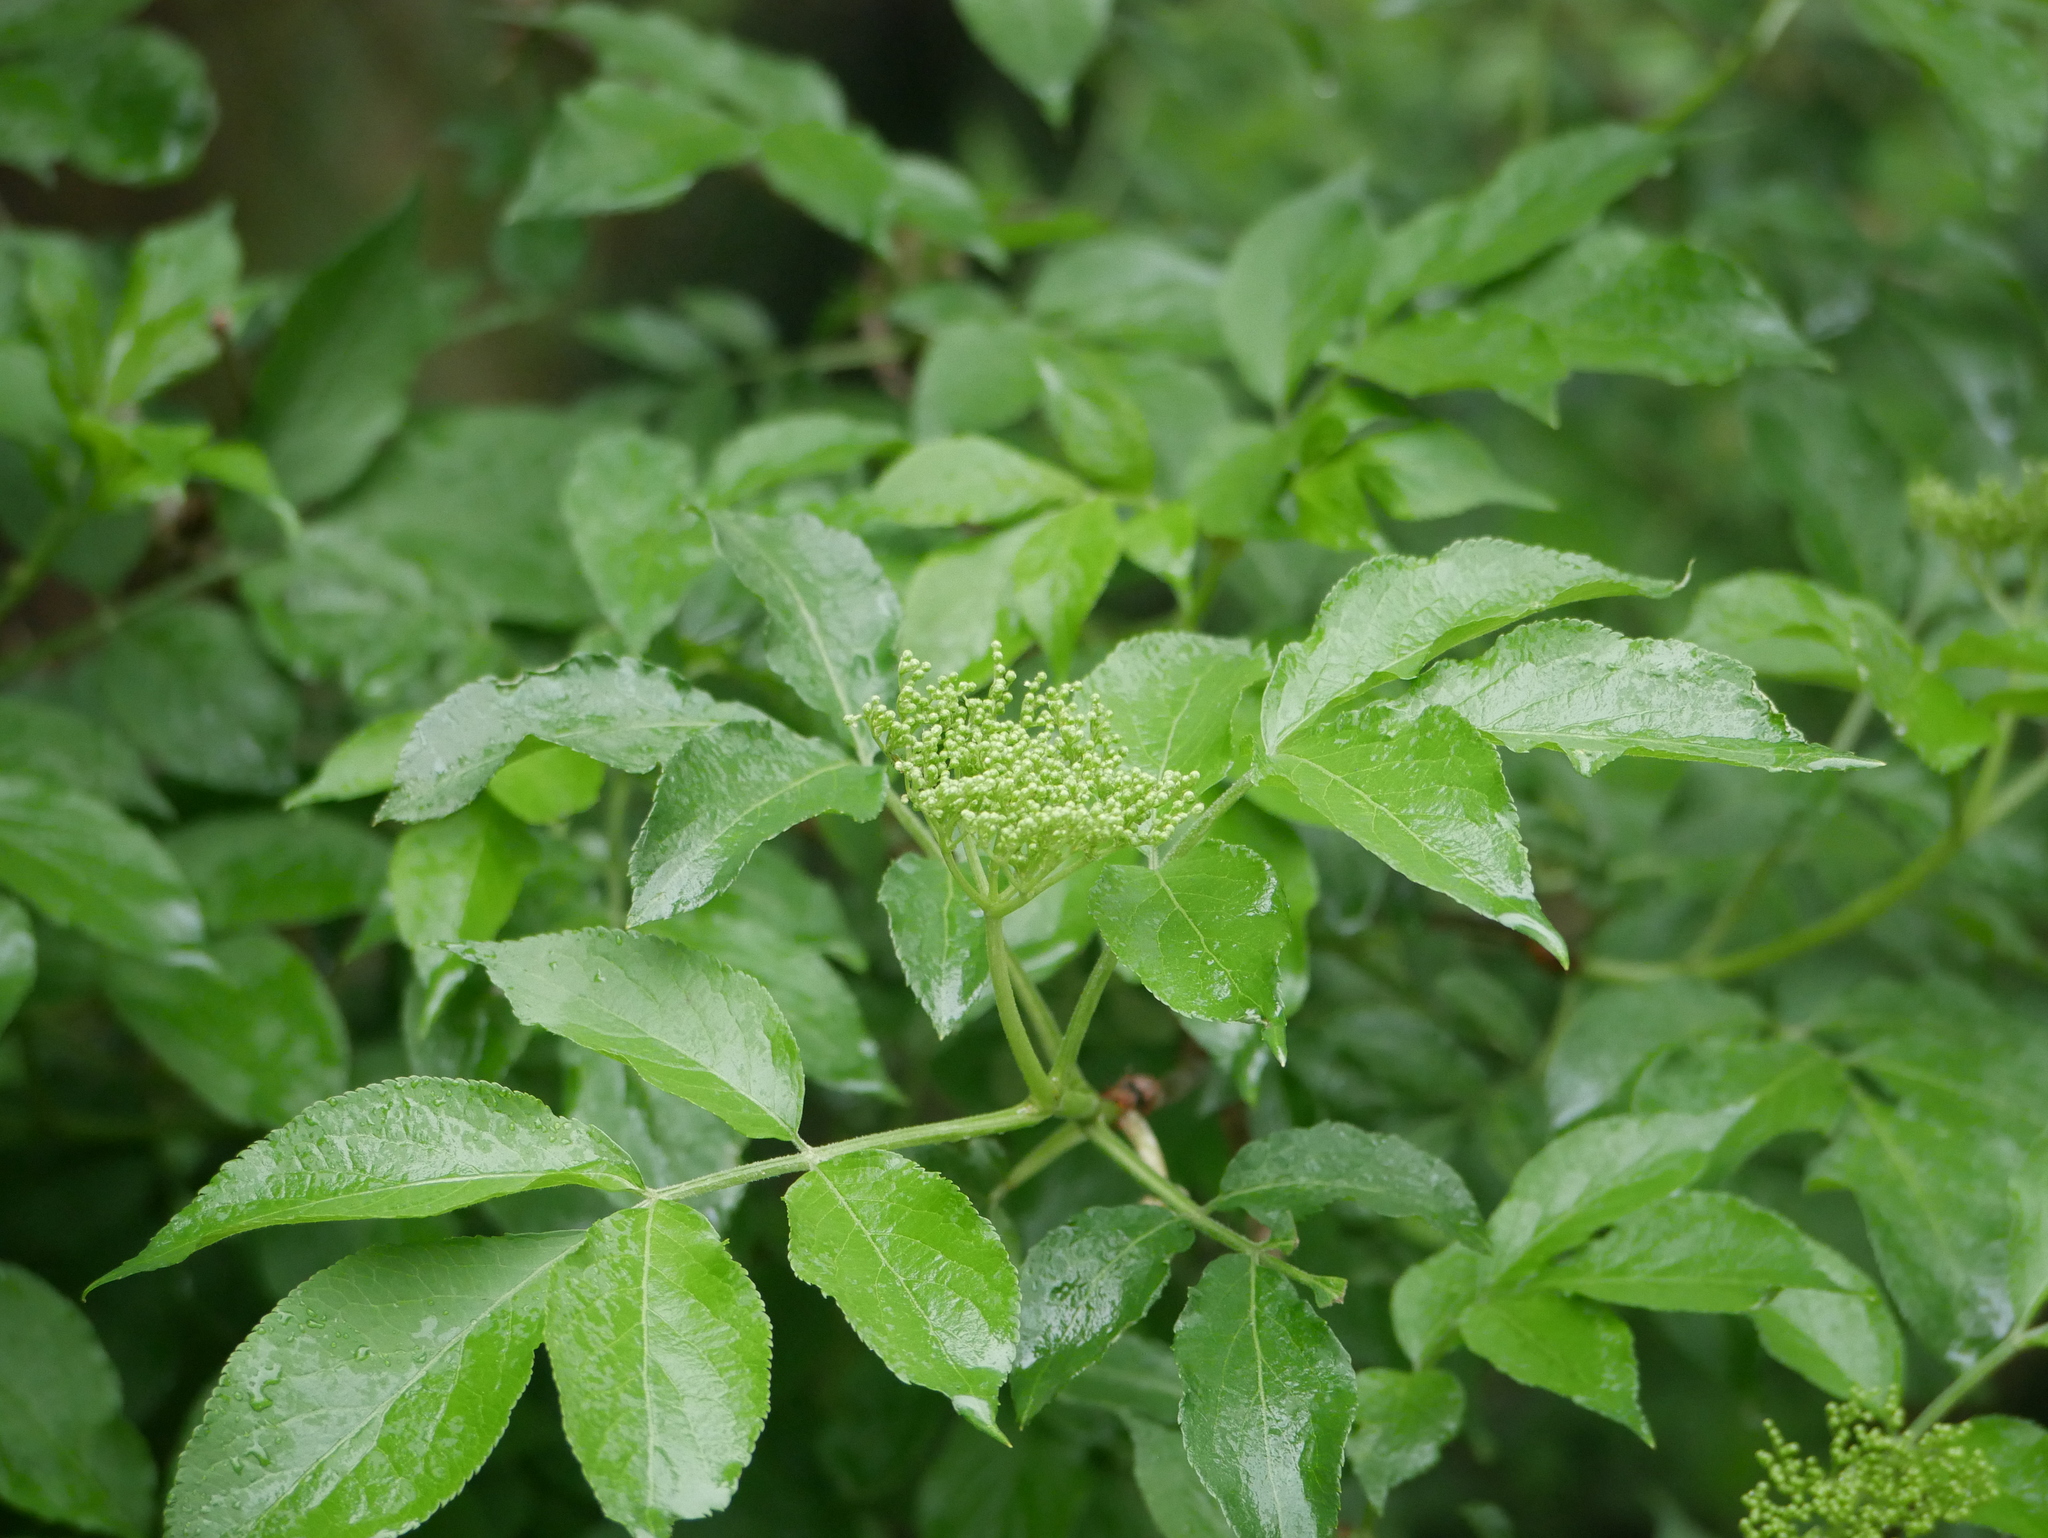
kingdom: Plantae
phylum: Tracheophyta
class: Magnoliopsida
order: Dipsacales
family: Viburnaceae
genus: Sambucus
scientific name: Sambucus nigra
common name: Elder
